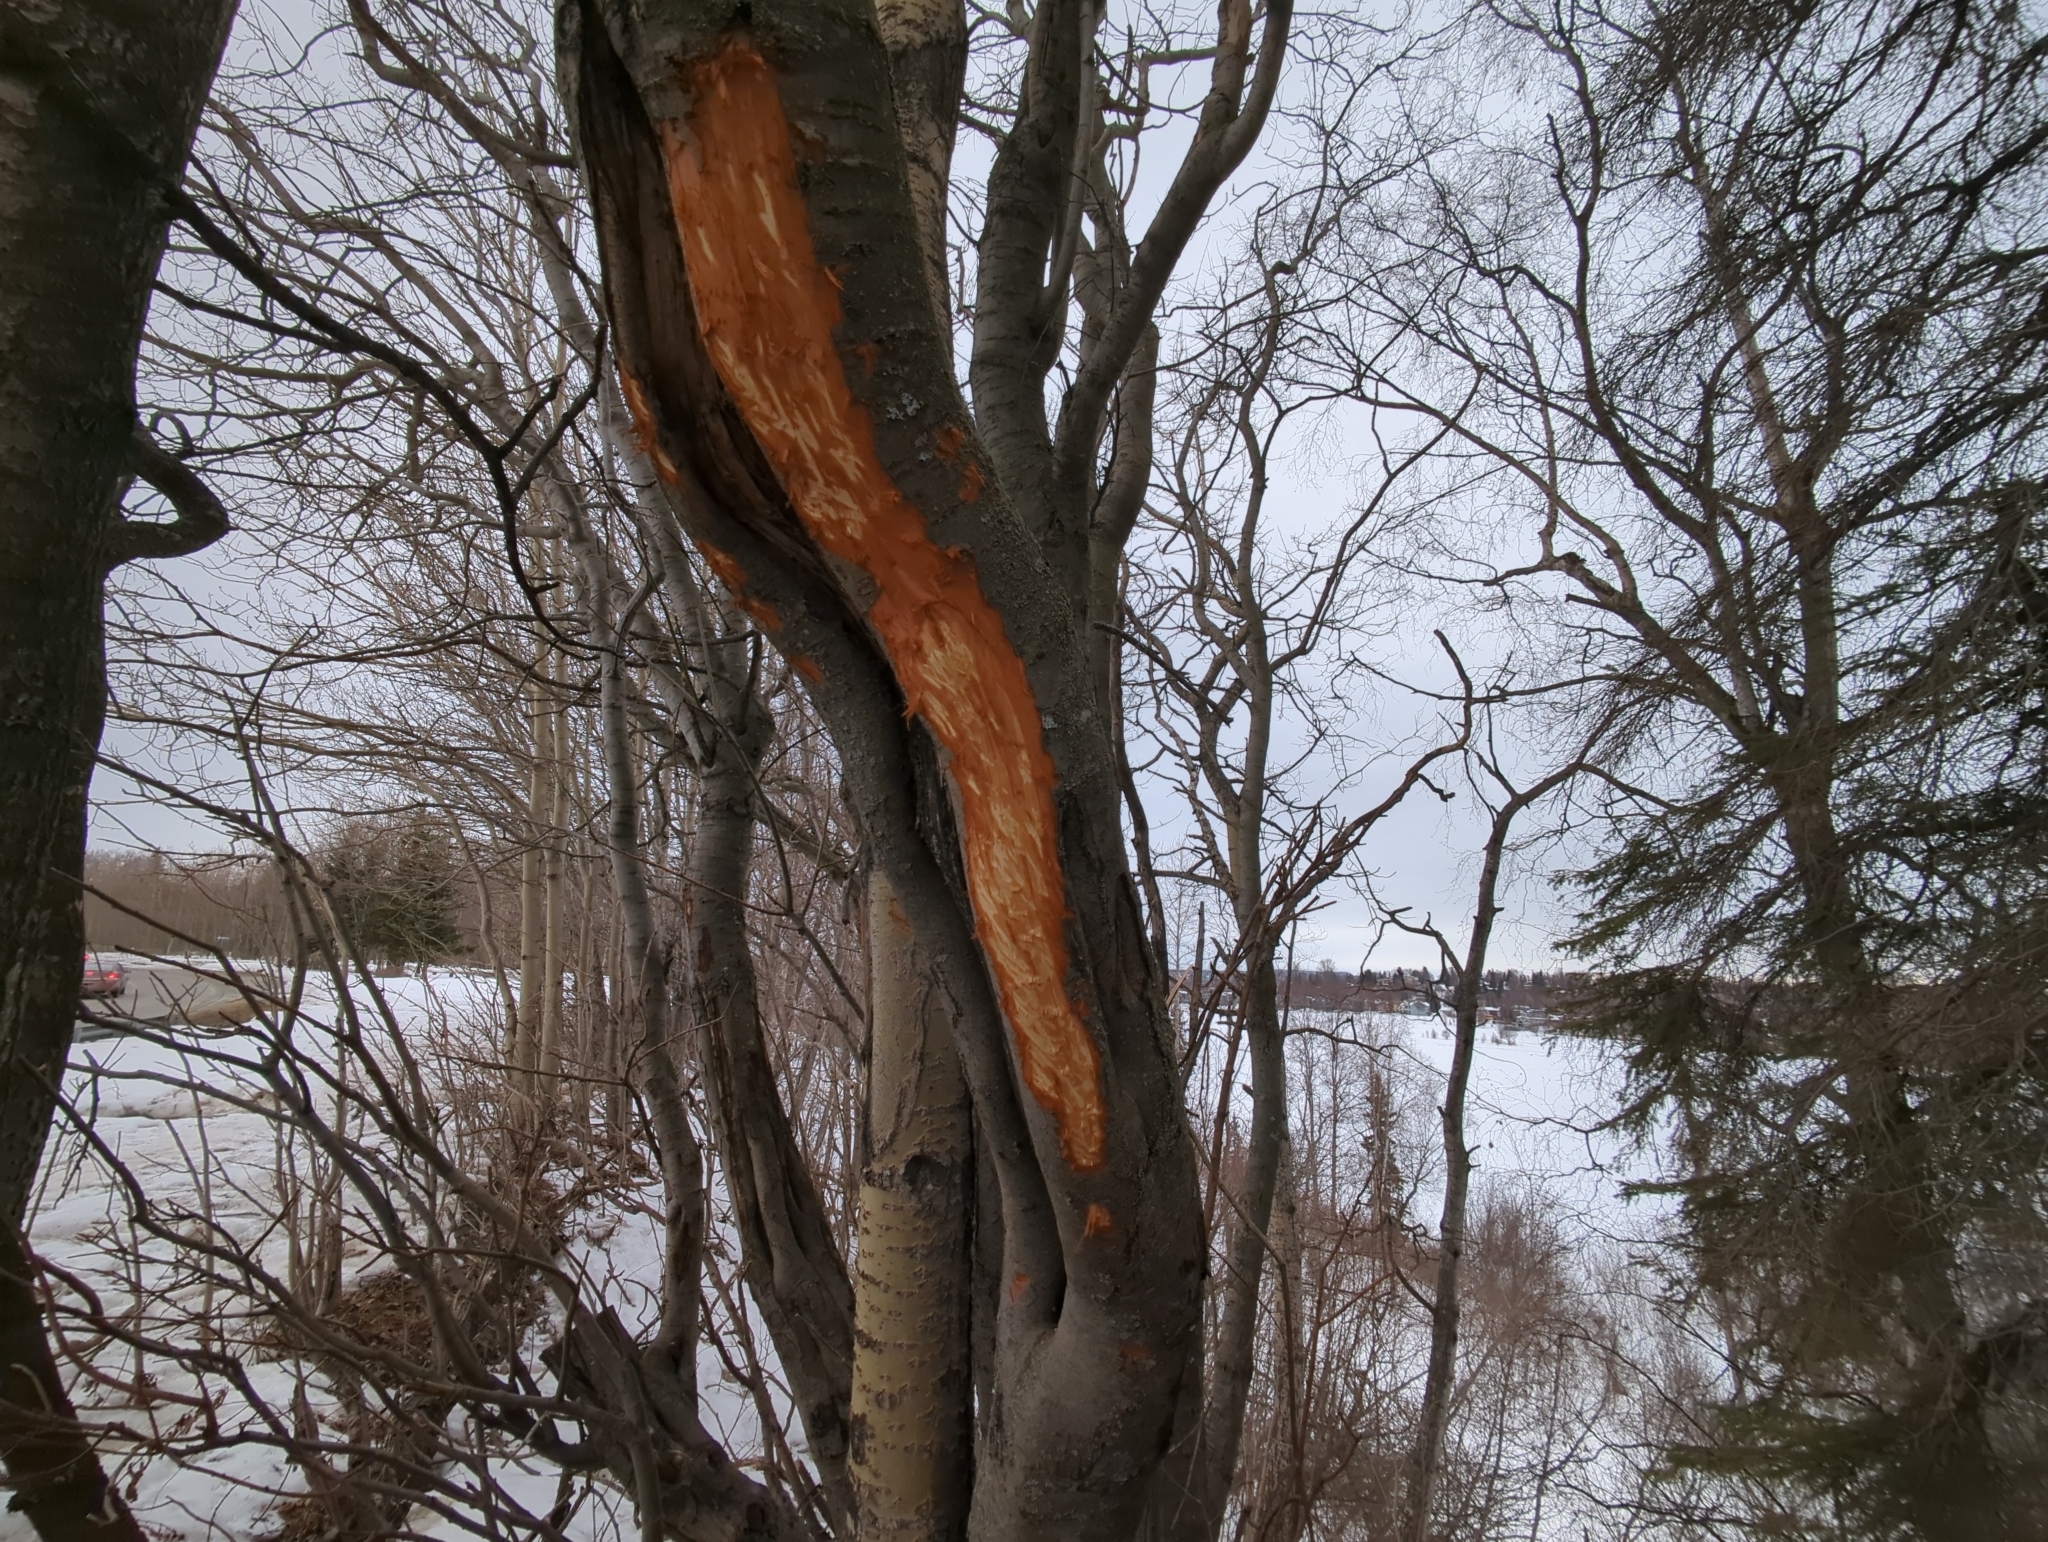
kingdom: Animalia
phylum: Chordata
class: Mammalia
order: Artiodactyla
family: Cervidae
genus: Alces
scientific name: Alces alces
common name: Moose
